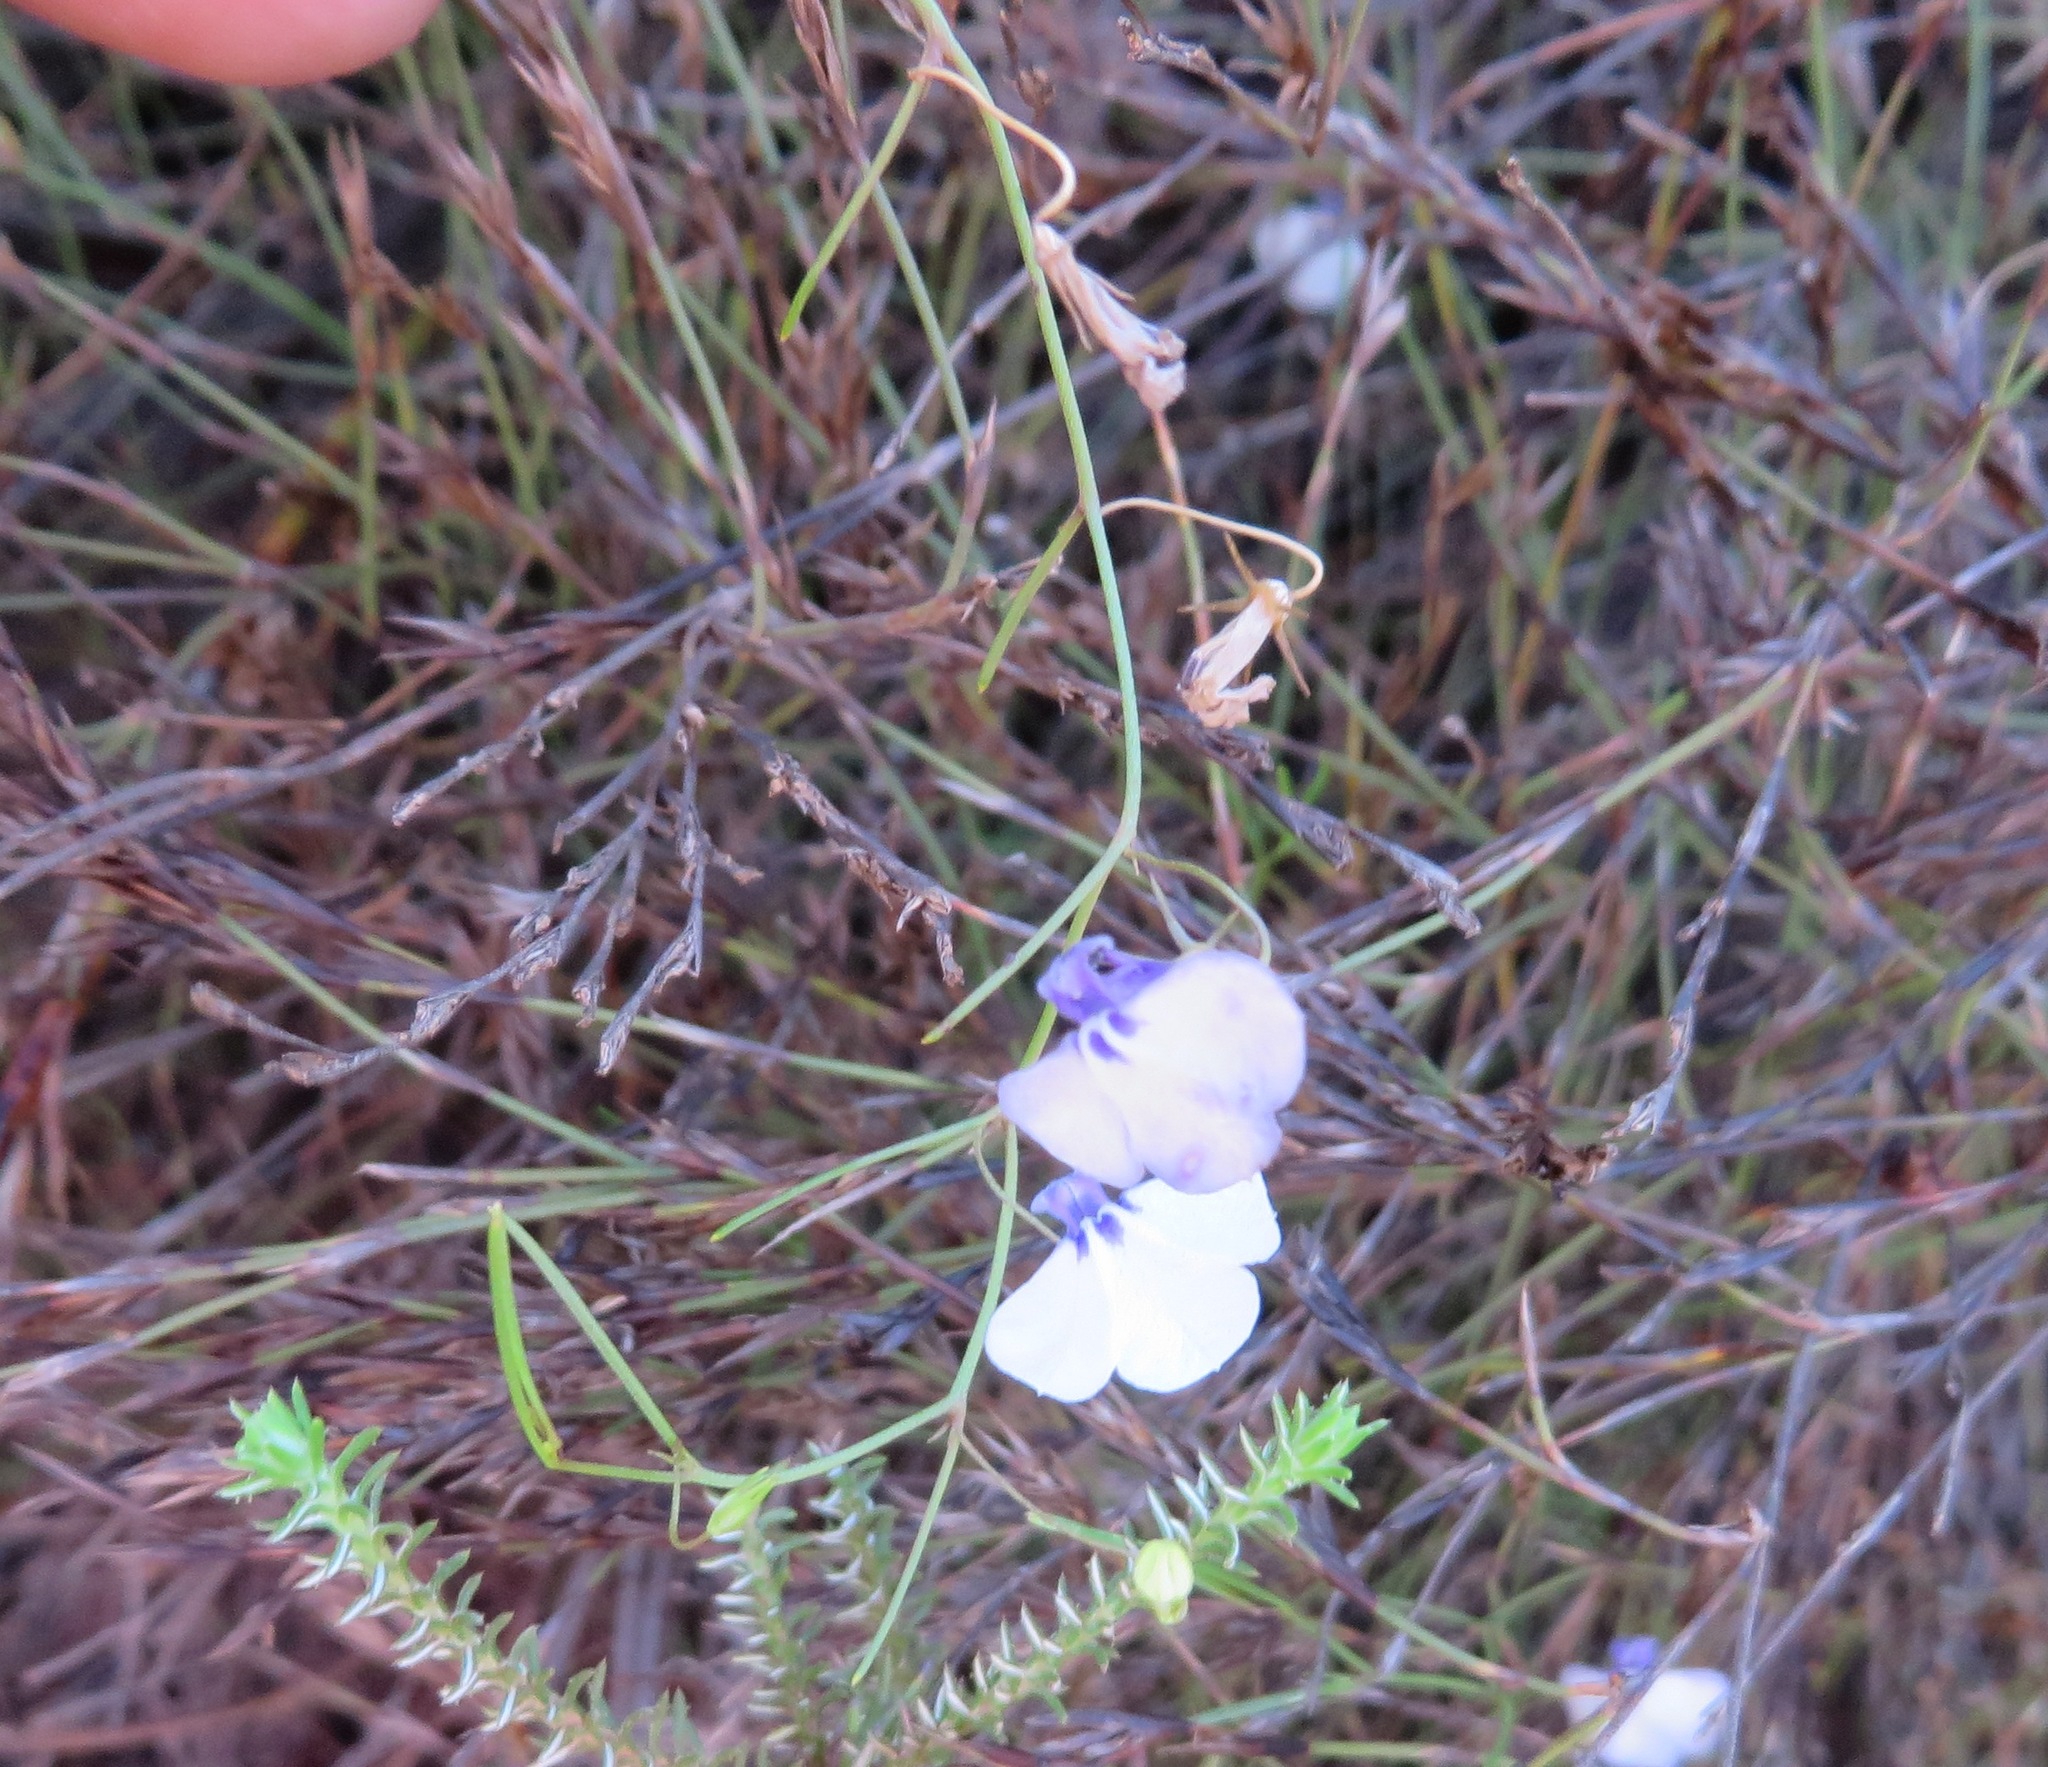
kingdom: Plantae
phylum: Tracheophyta
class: Magnoliopsida
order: Asterales
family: Campanulaceae
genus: Lobelia
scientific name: Lobelia setacea
